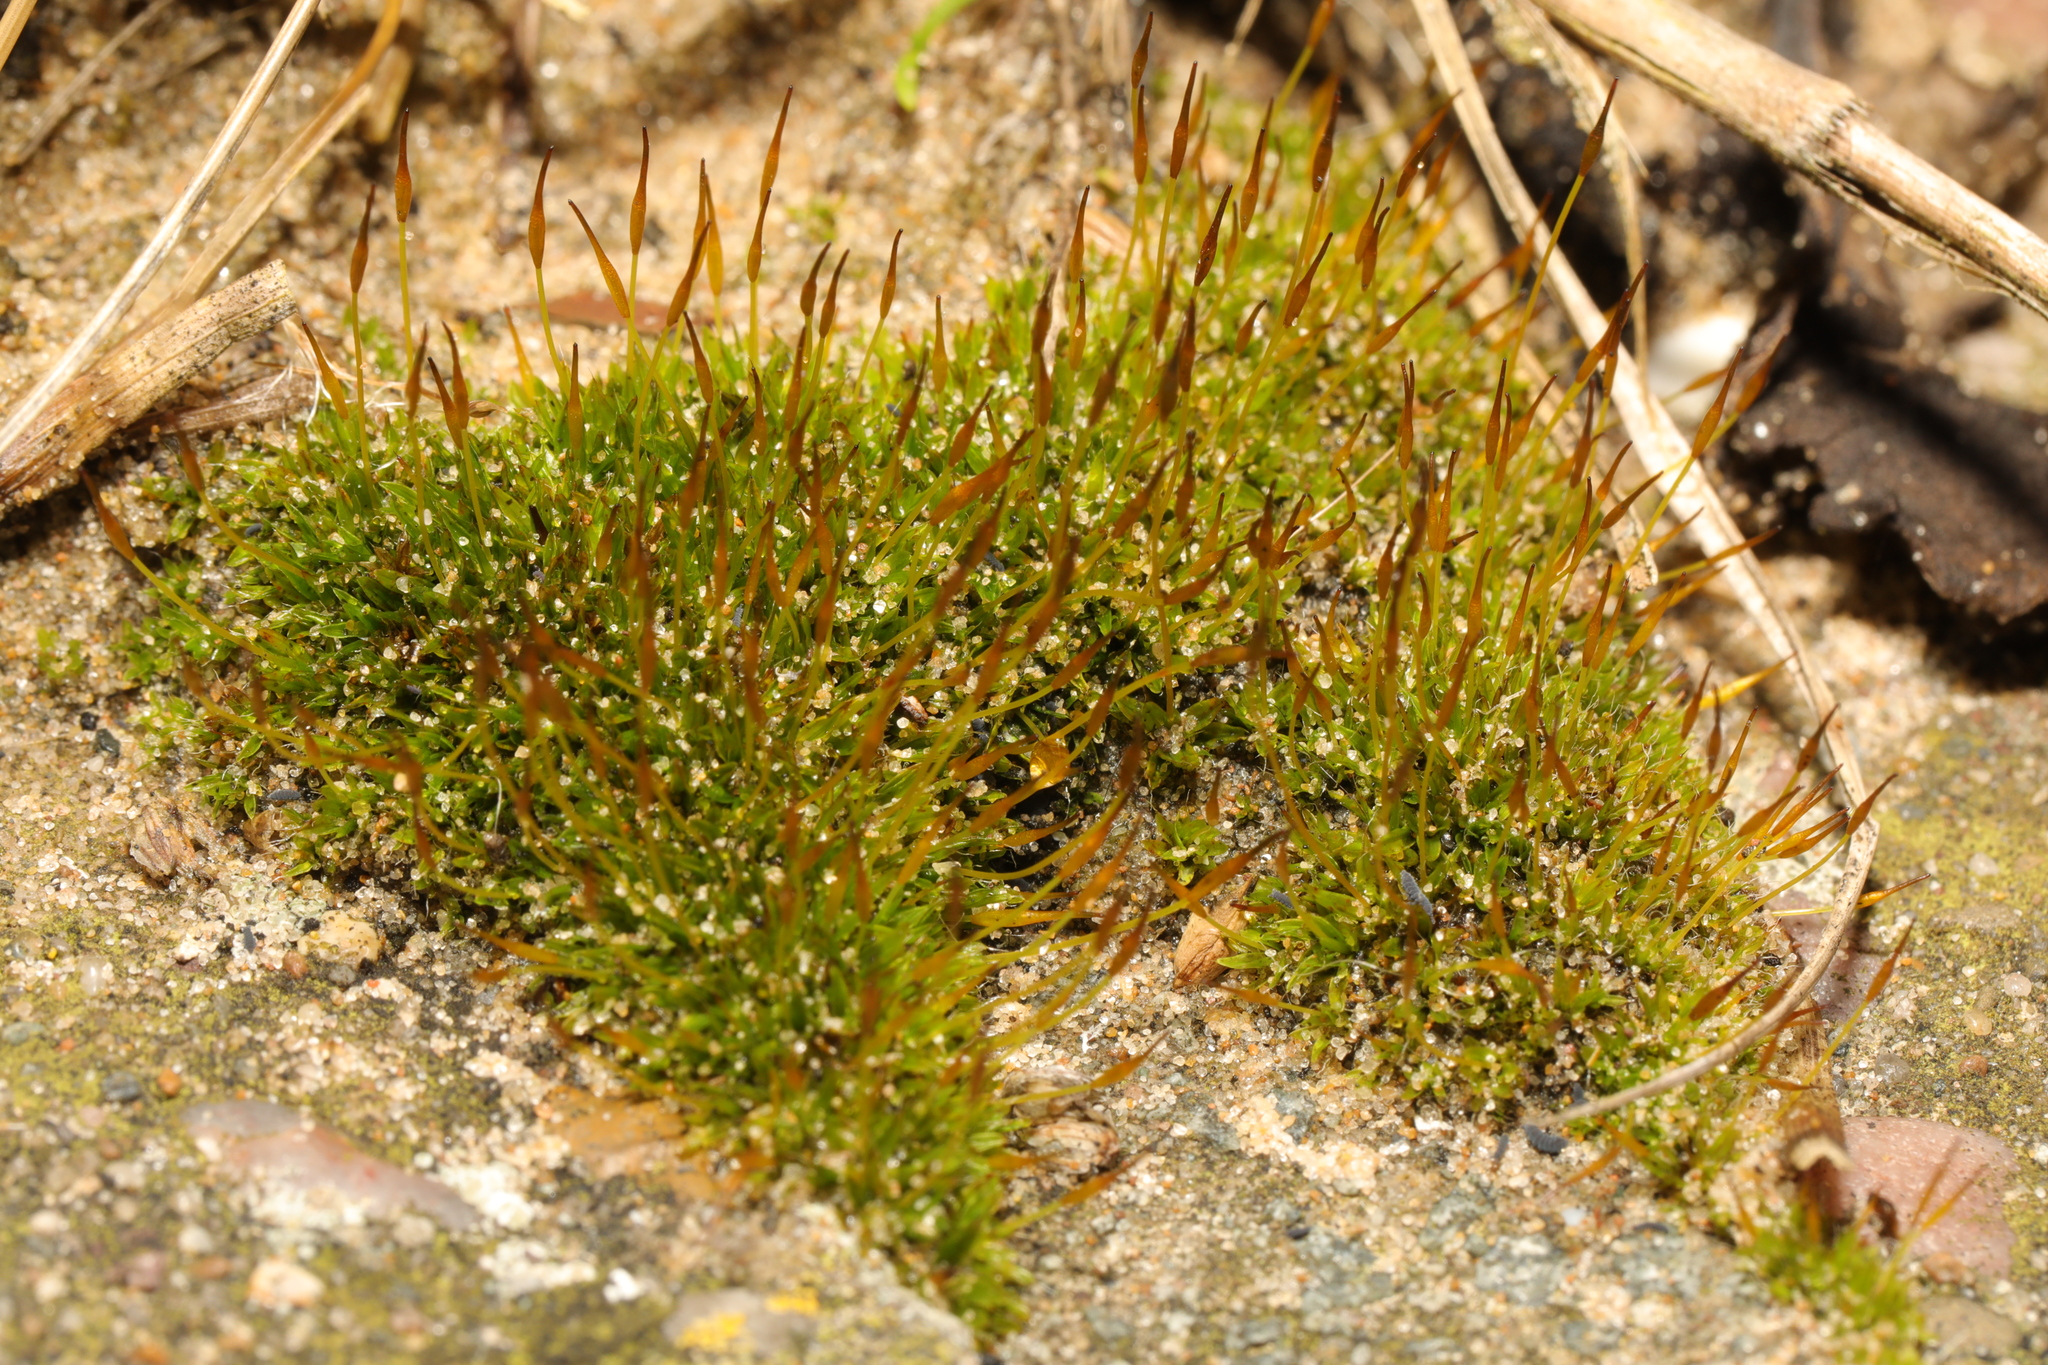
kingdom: Plantae
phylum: Bryophyta
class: Bryopsida
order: Pottiales
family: Pottiaceae
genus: Tortula
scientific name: Tortula muralis
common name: Wall screw-moss
